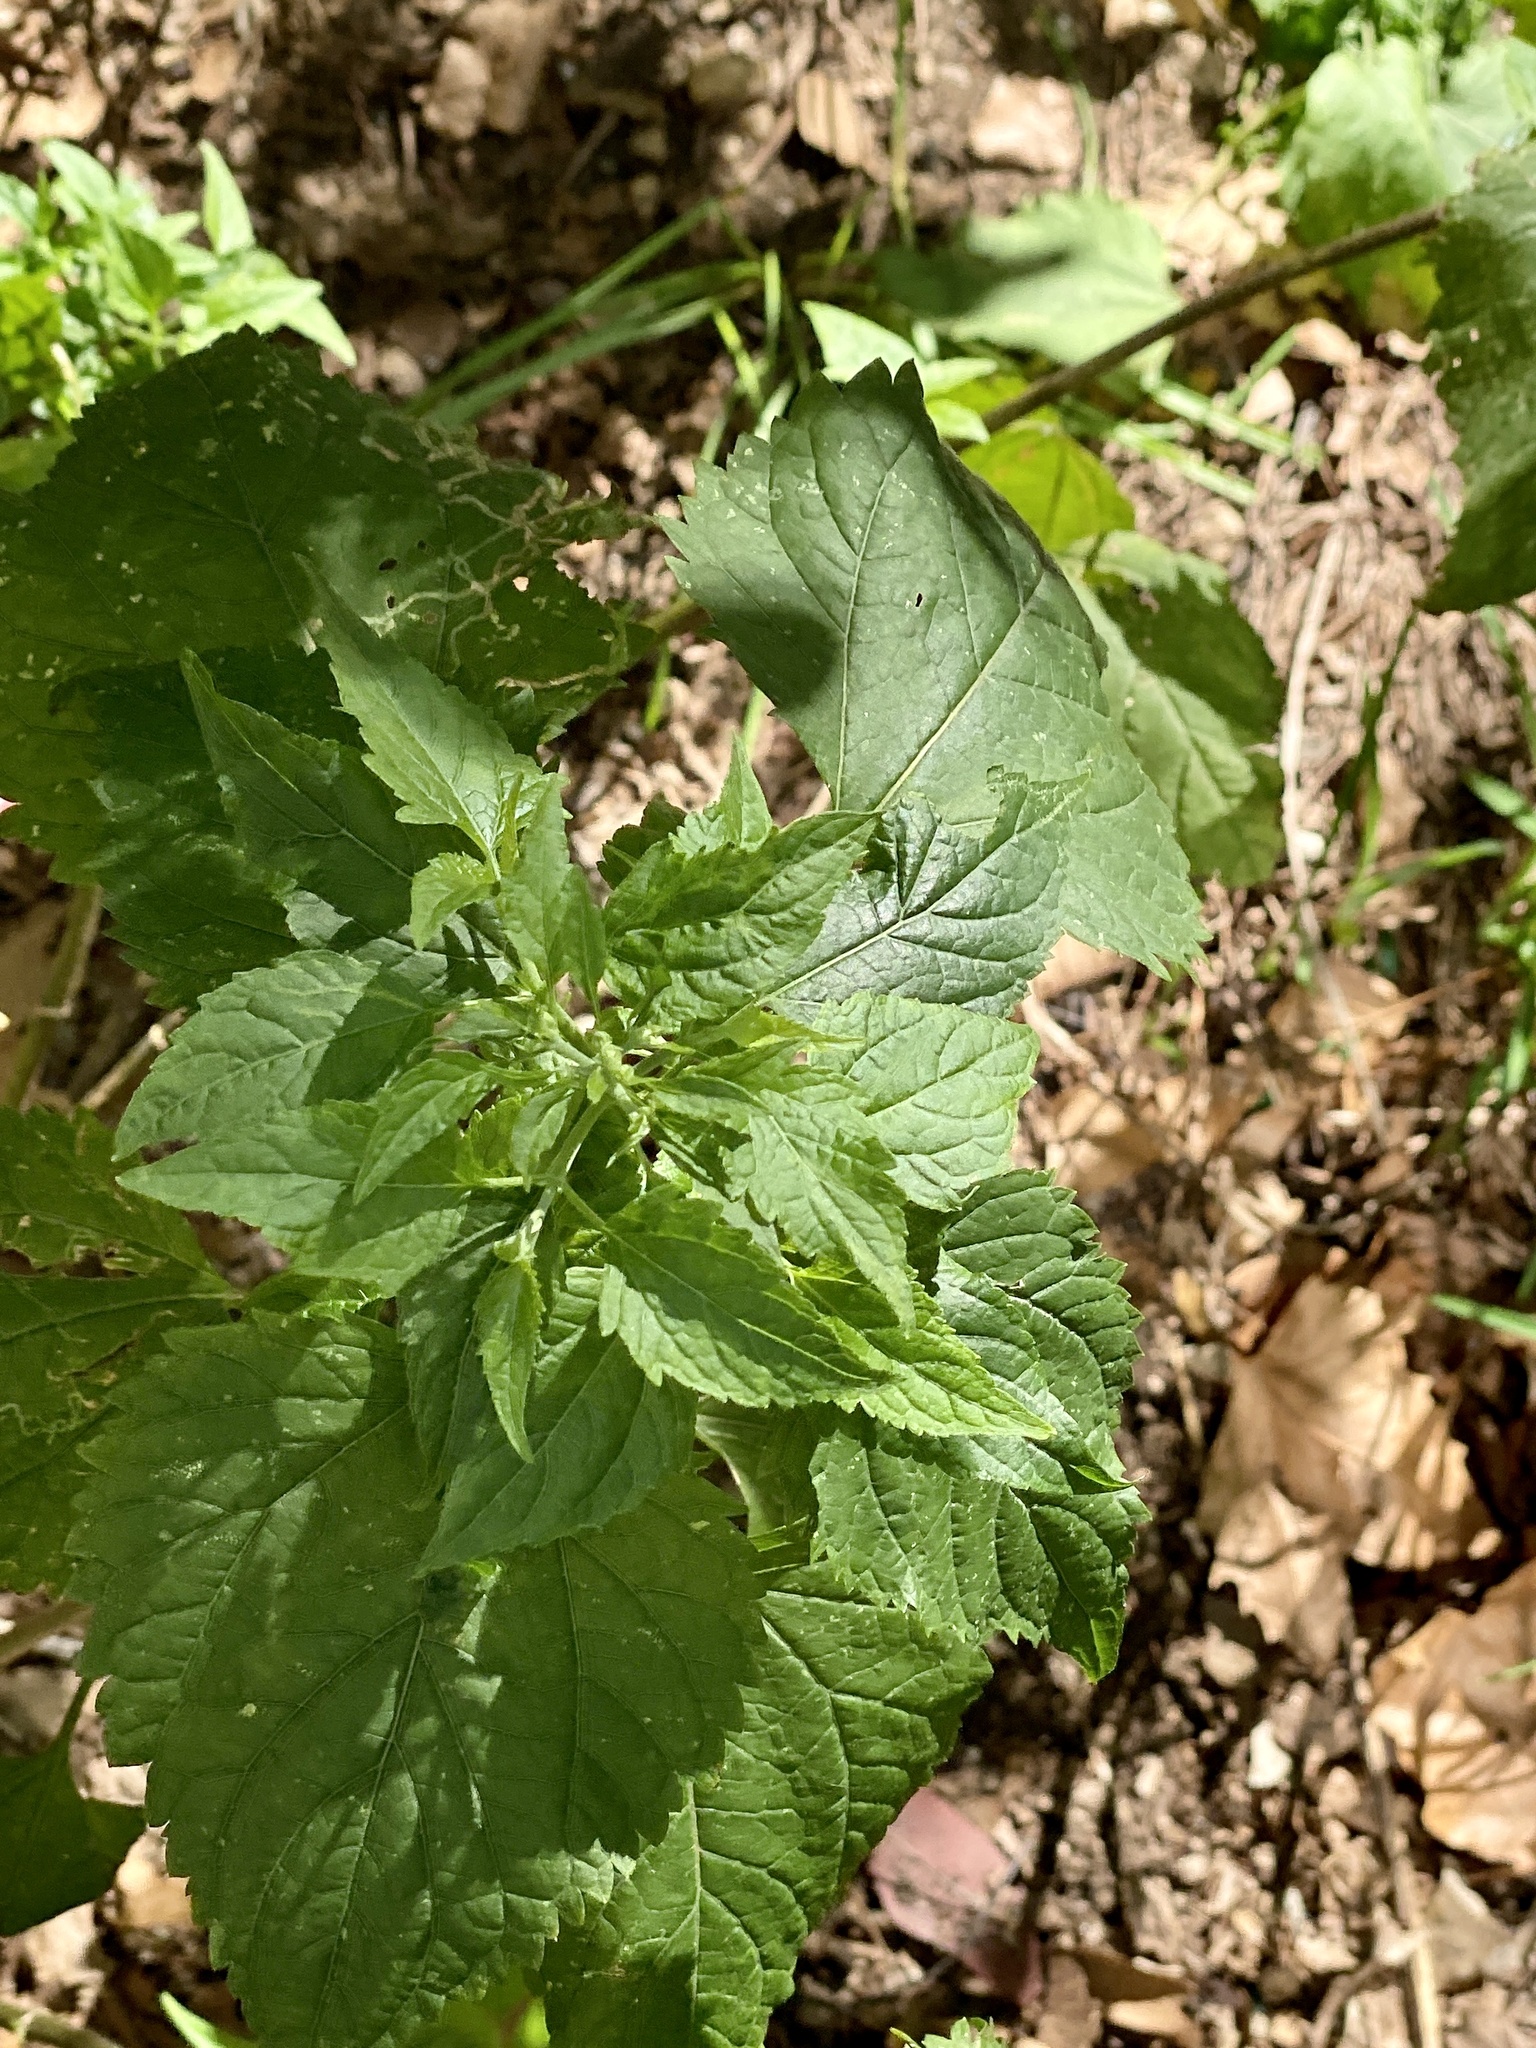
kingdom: Plantae
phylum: Tracheophyta
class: Magnoliopsida
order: Asterales
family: Asteraceae
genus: Ageratina
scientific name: Ageratina altissima
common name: White snakeroot
